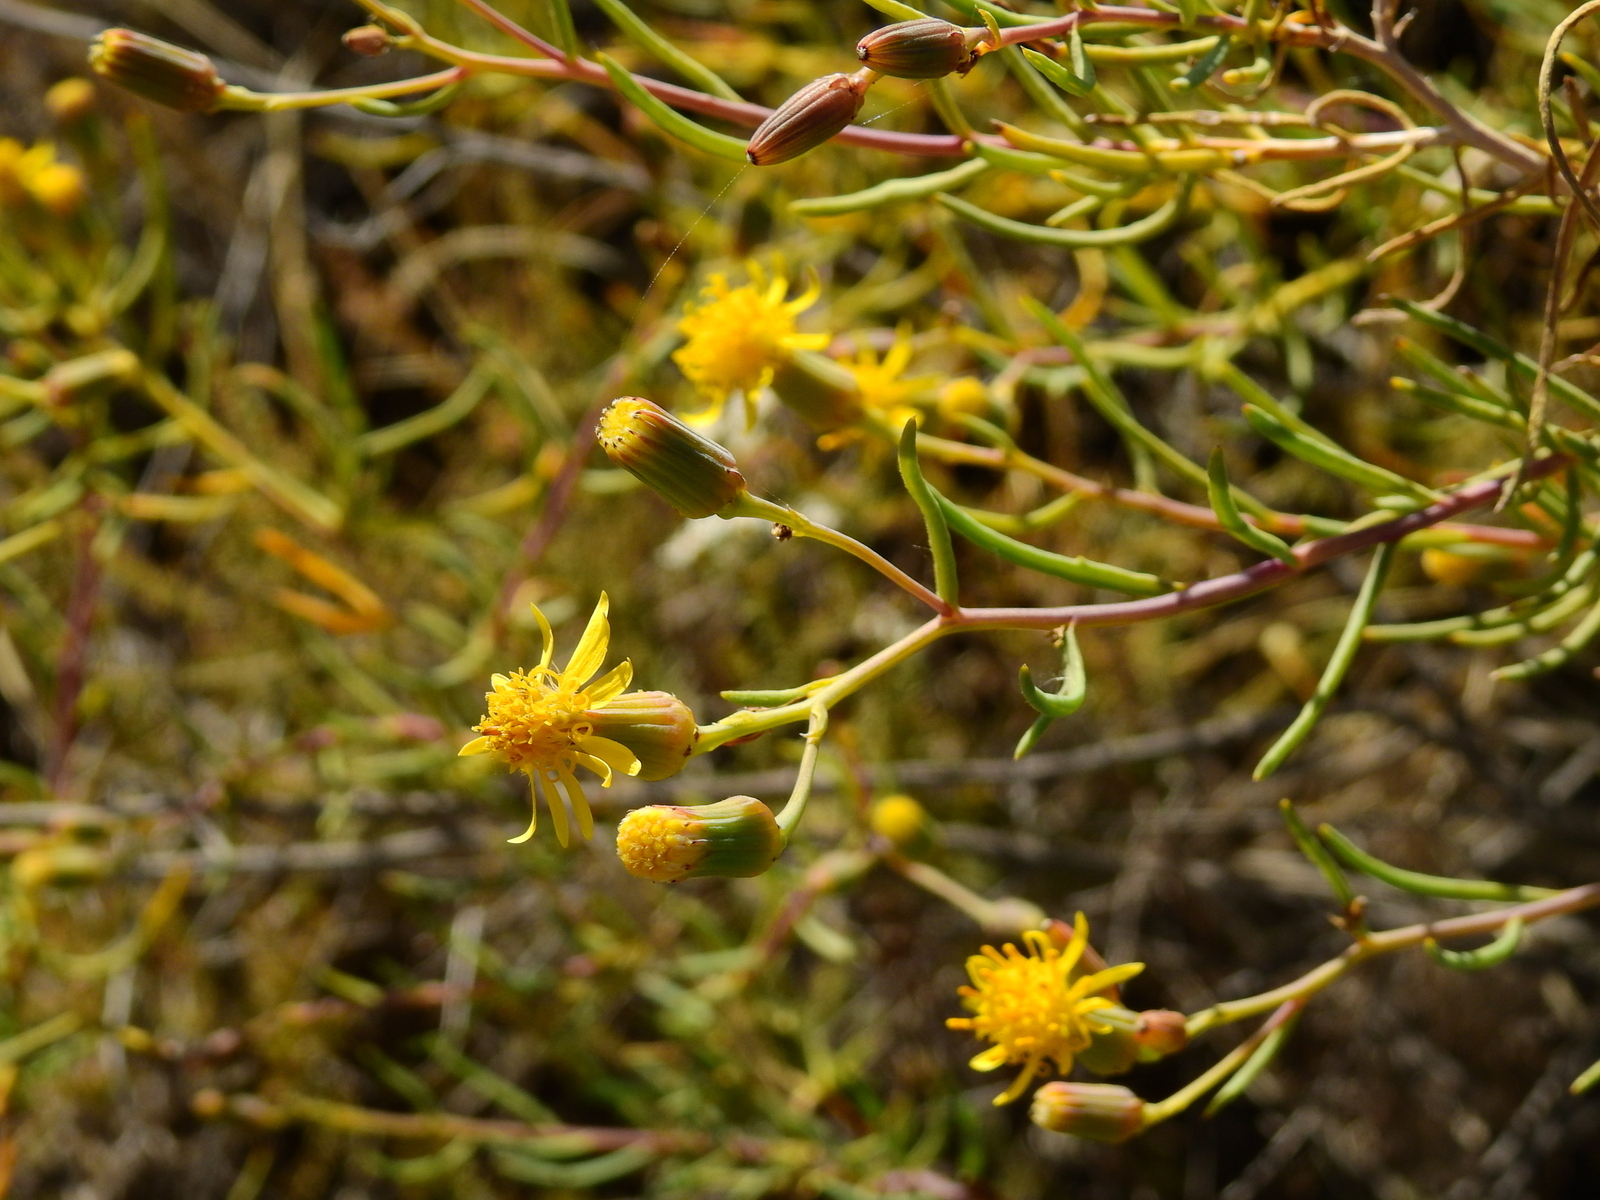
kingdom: Plantae
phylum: Tracheophyta
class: Magnoliopsida
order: Asterales
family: Asteraceae
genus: Senecio
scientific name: Senecio subulatus
